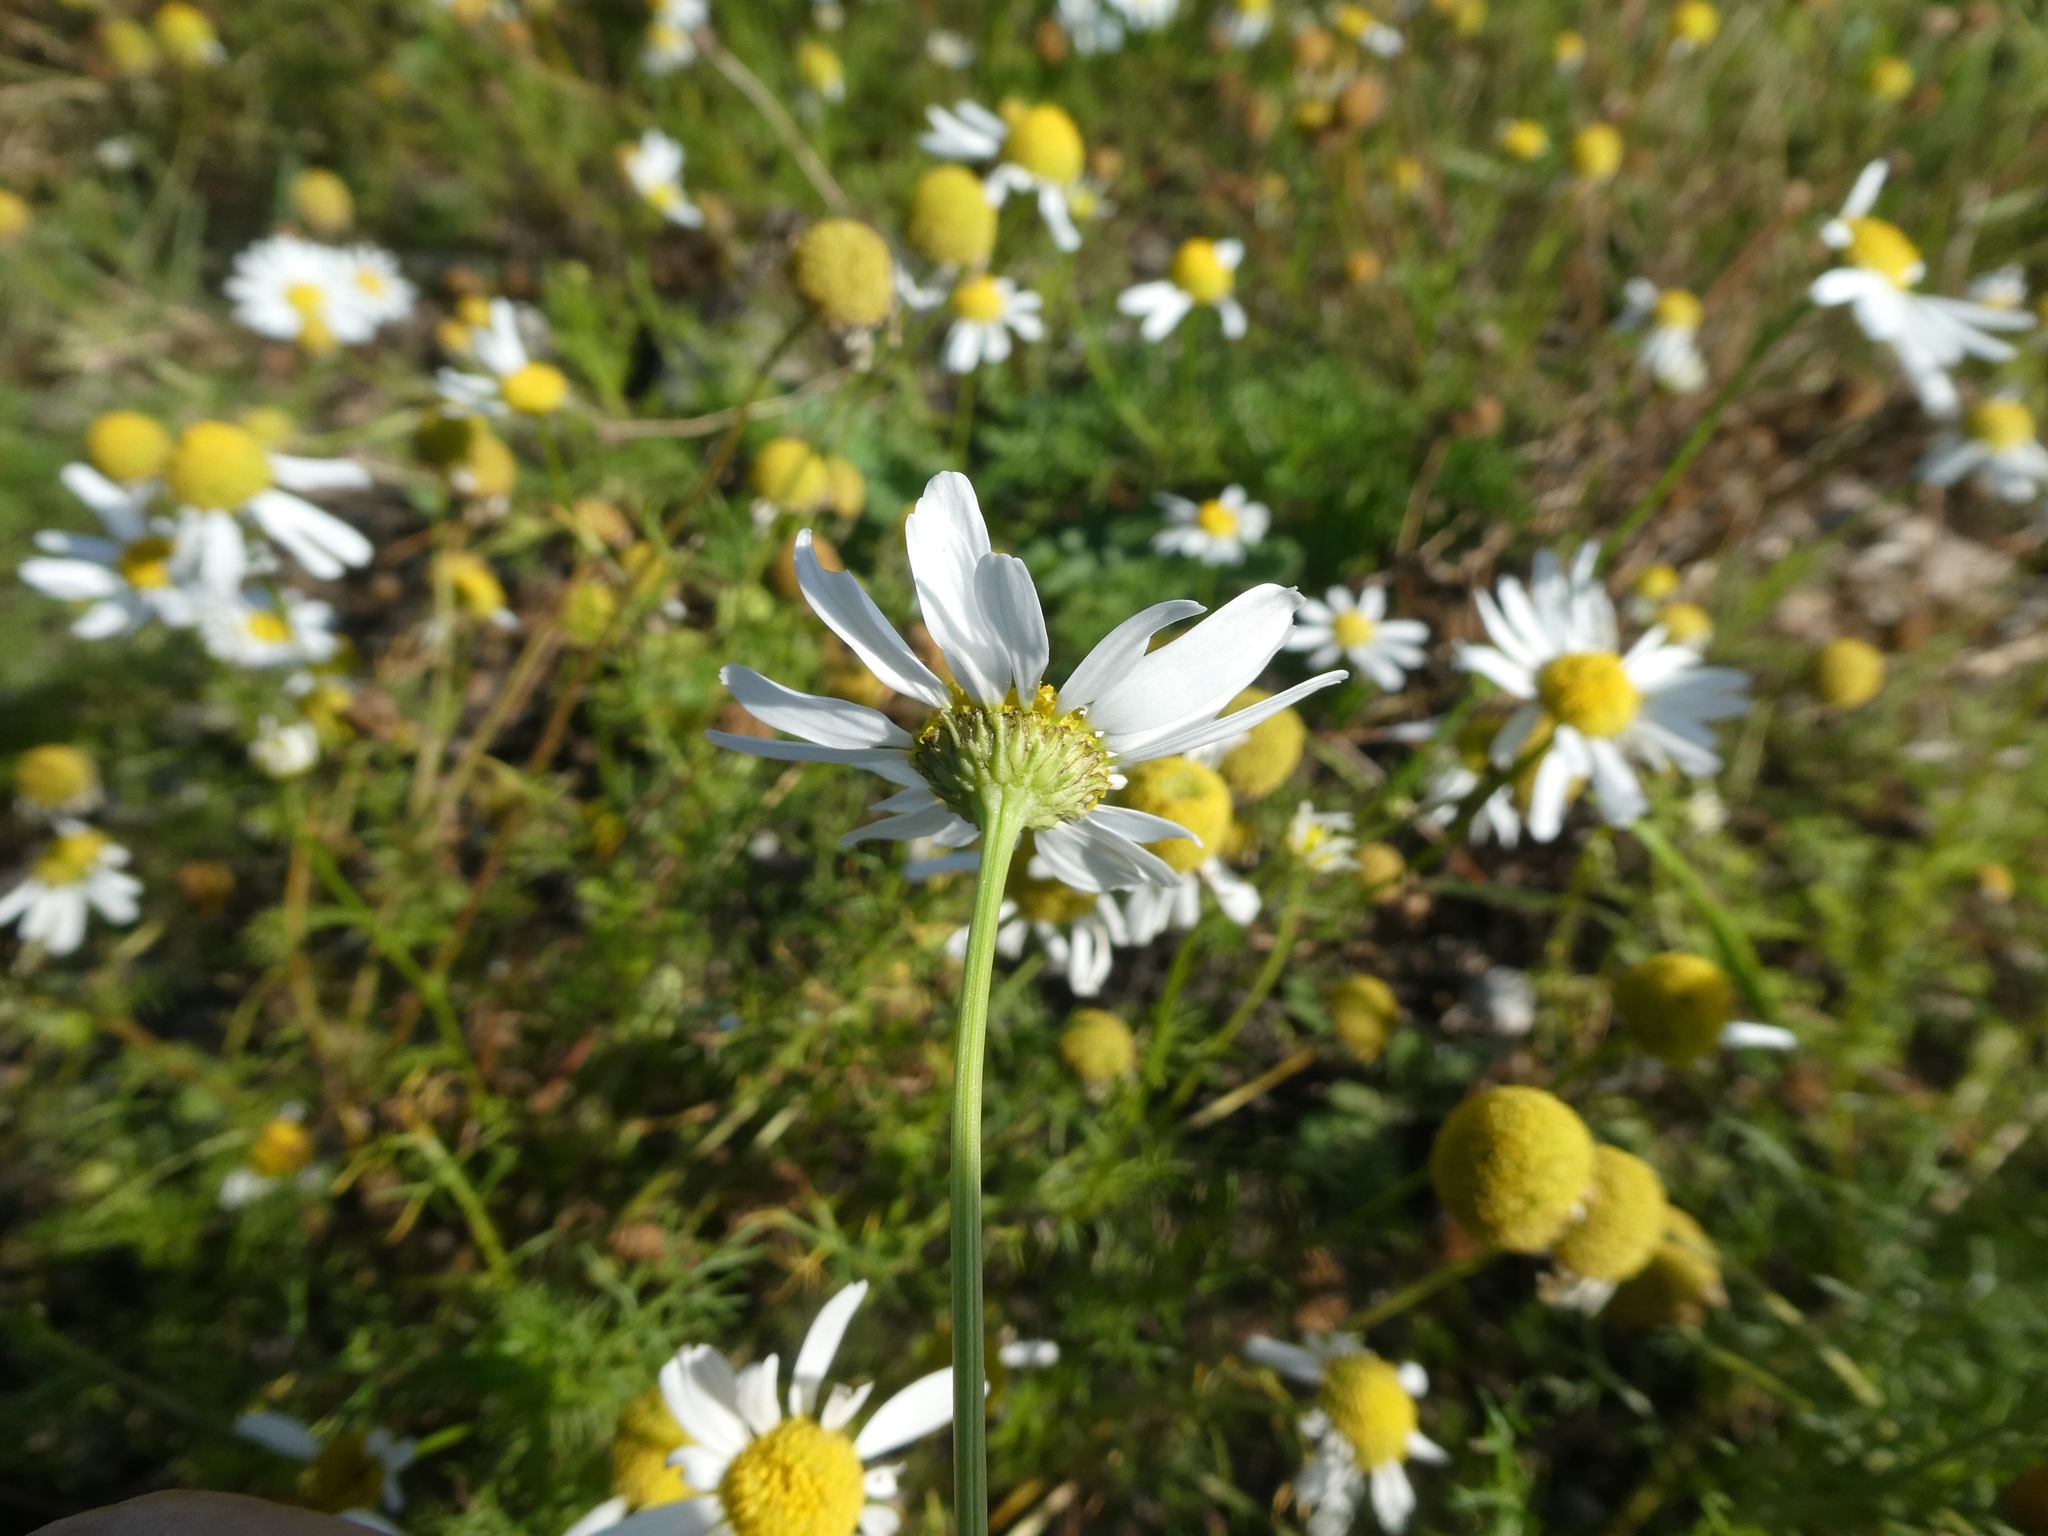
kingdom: Plantae
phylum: Tracheophyta
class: Magnoliopsida
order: Asterales
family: Asteraceae
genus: Tripleurospermum
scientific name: Tripleurospermum maritimum
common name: Sea mayweed
